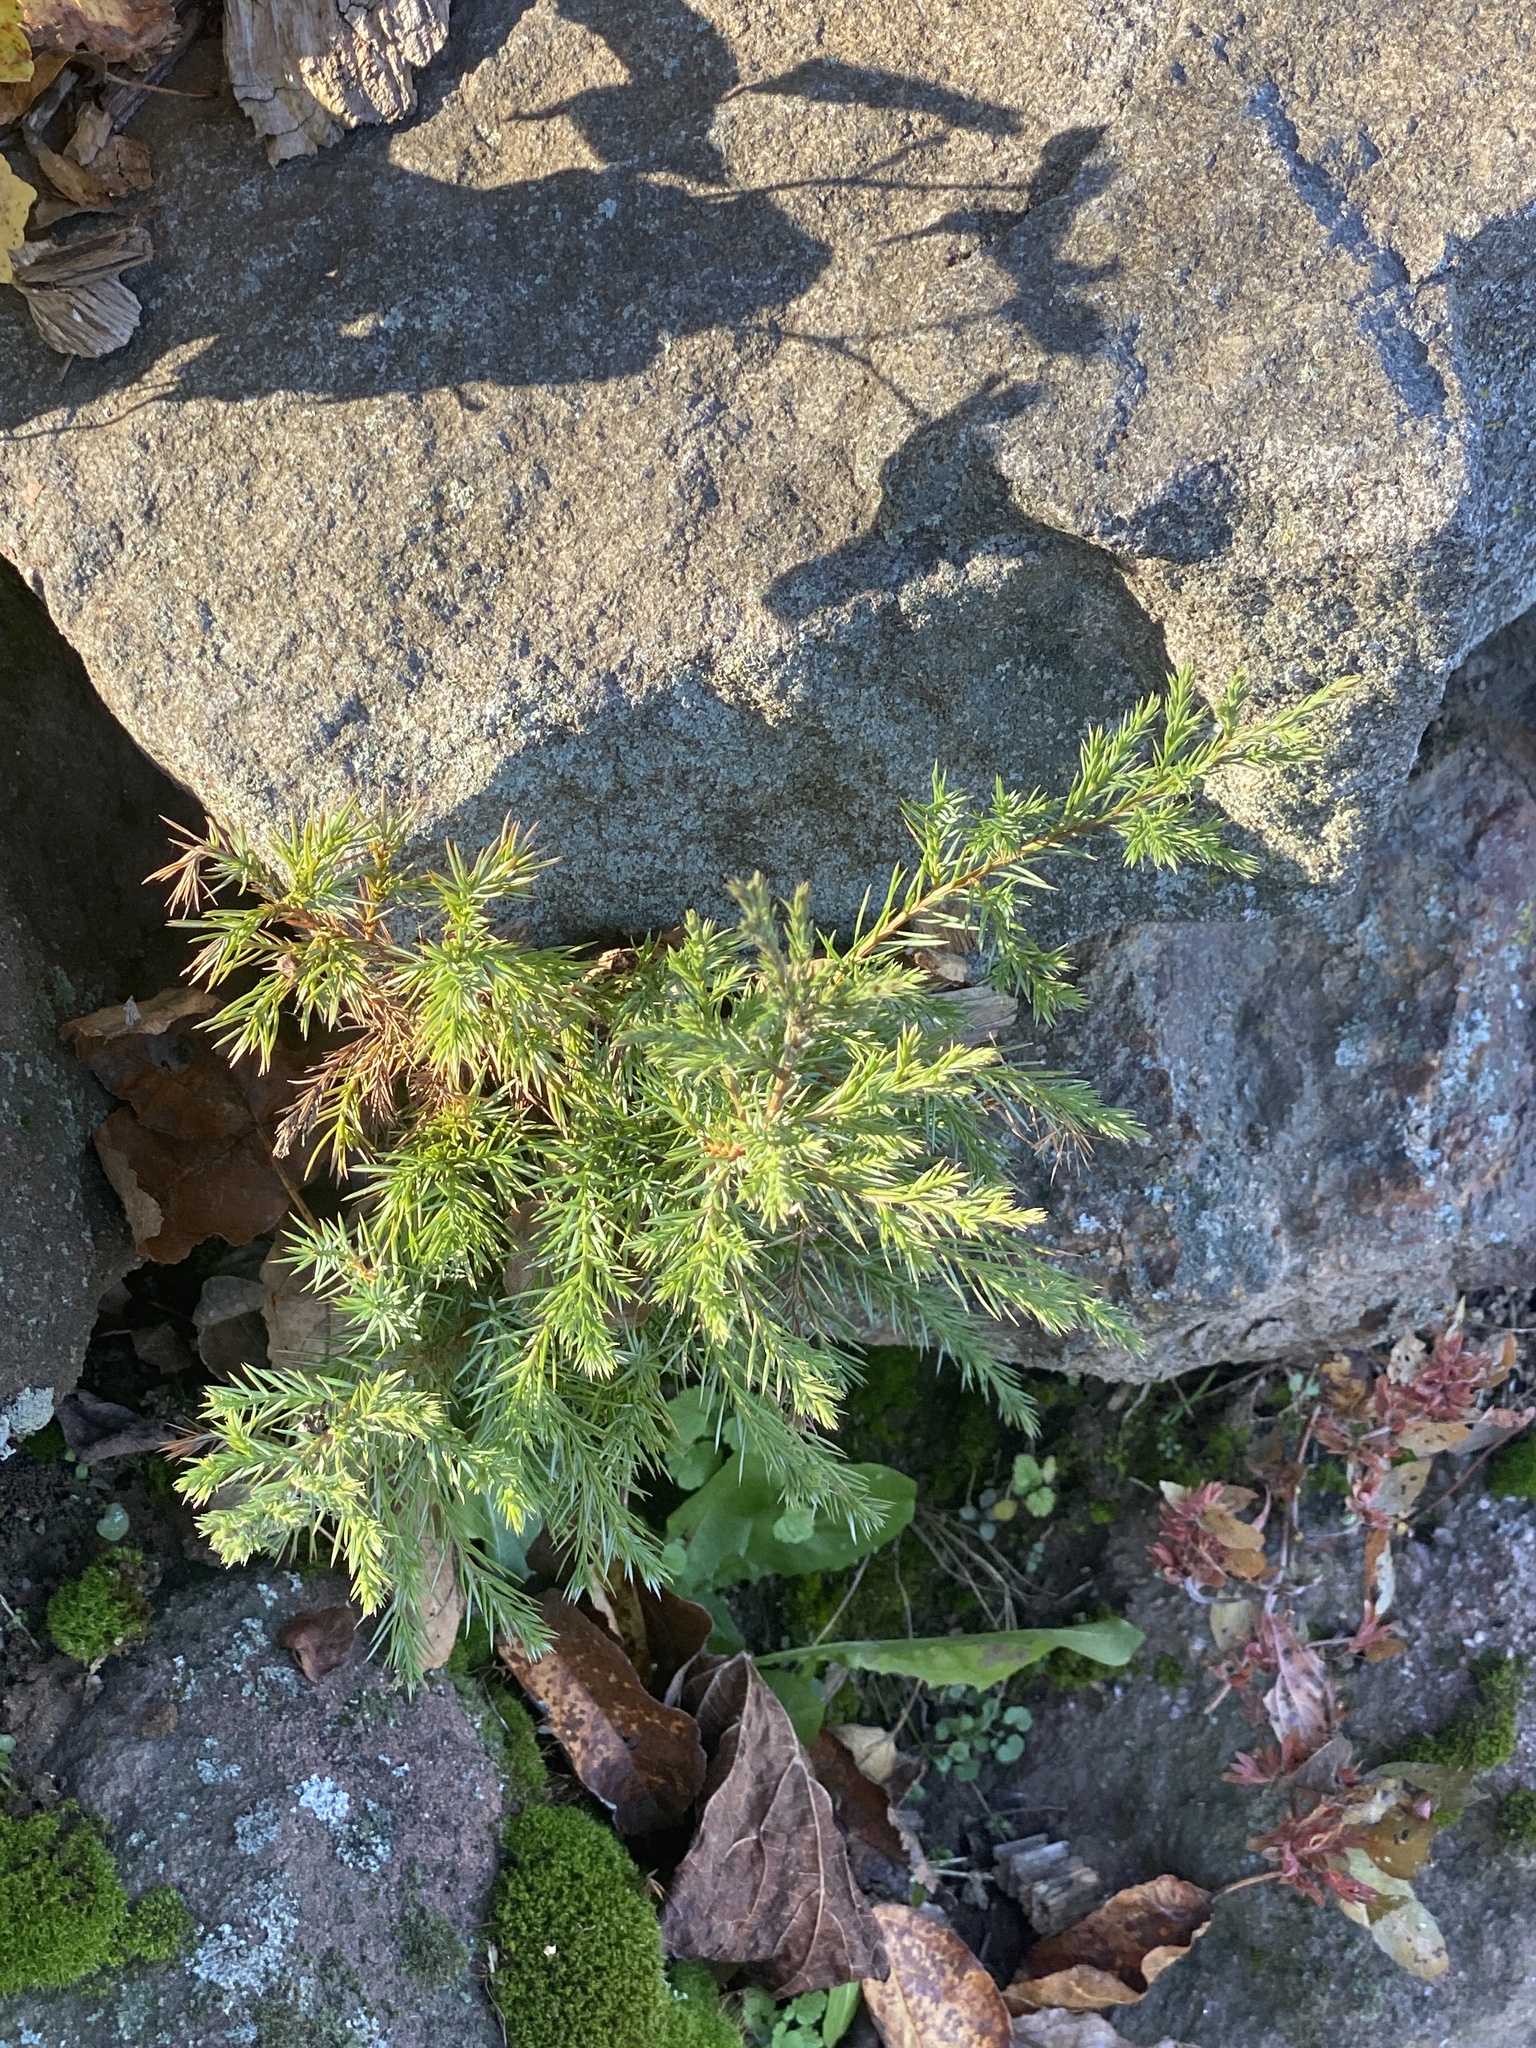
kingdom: Plantae
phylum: Tracheophyta
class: Pinopsida
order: Pinales
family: Cupressaceae
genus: Juniperus
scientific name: Juniperus virginiana
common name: Red juniper
